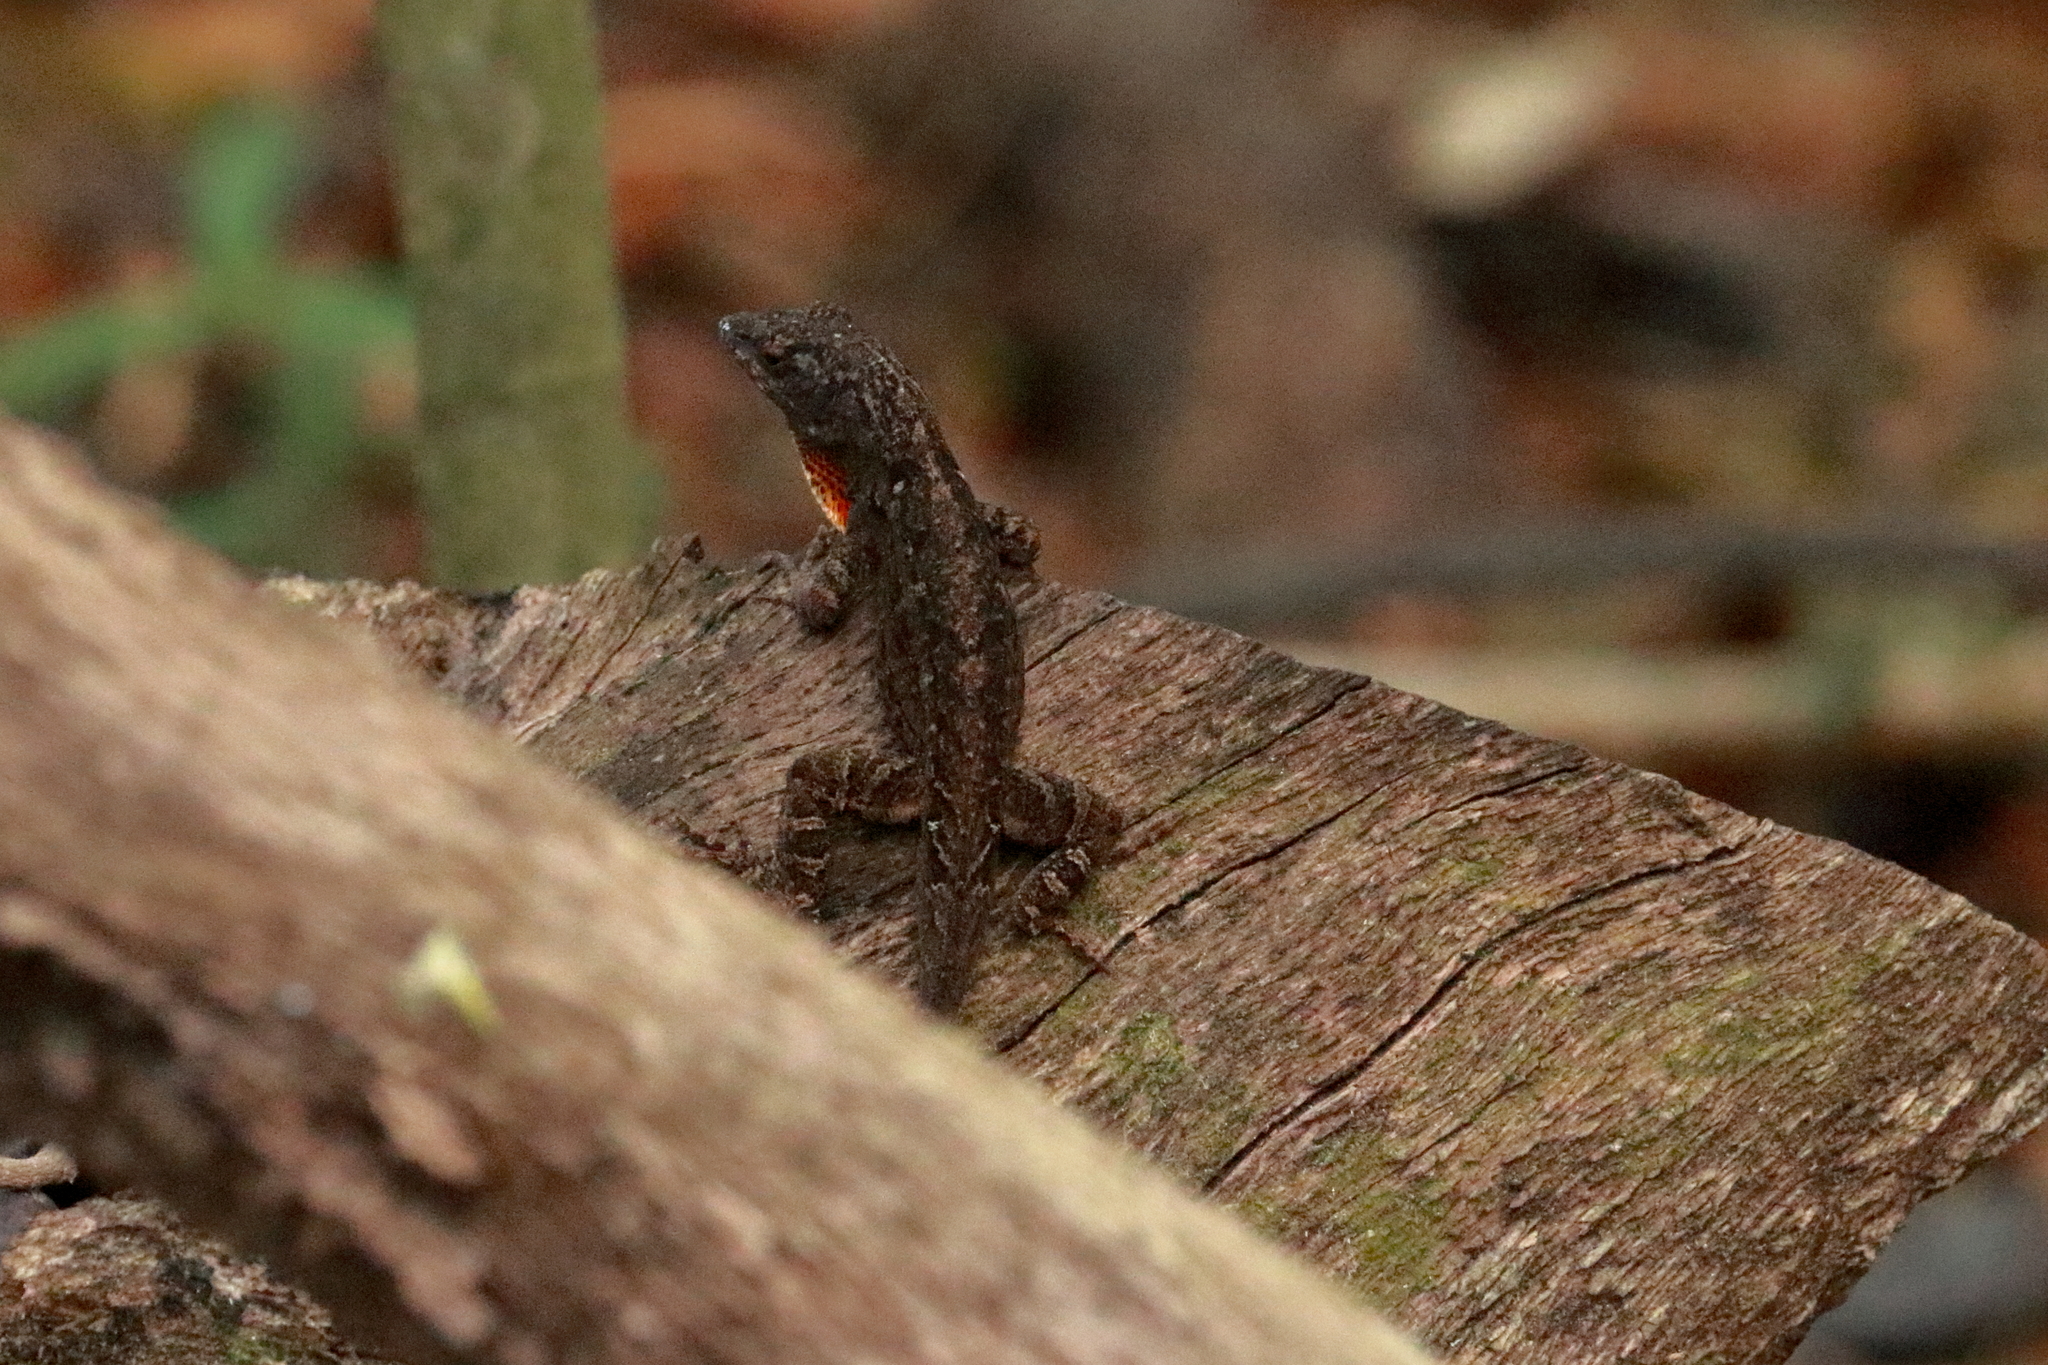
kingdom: Animalia
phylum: Chordata
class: Squamata
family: Dactyloidae
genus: Anolis
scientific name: Anolis sagrei
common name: Brown anole
